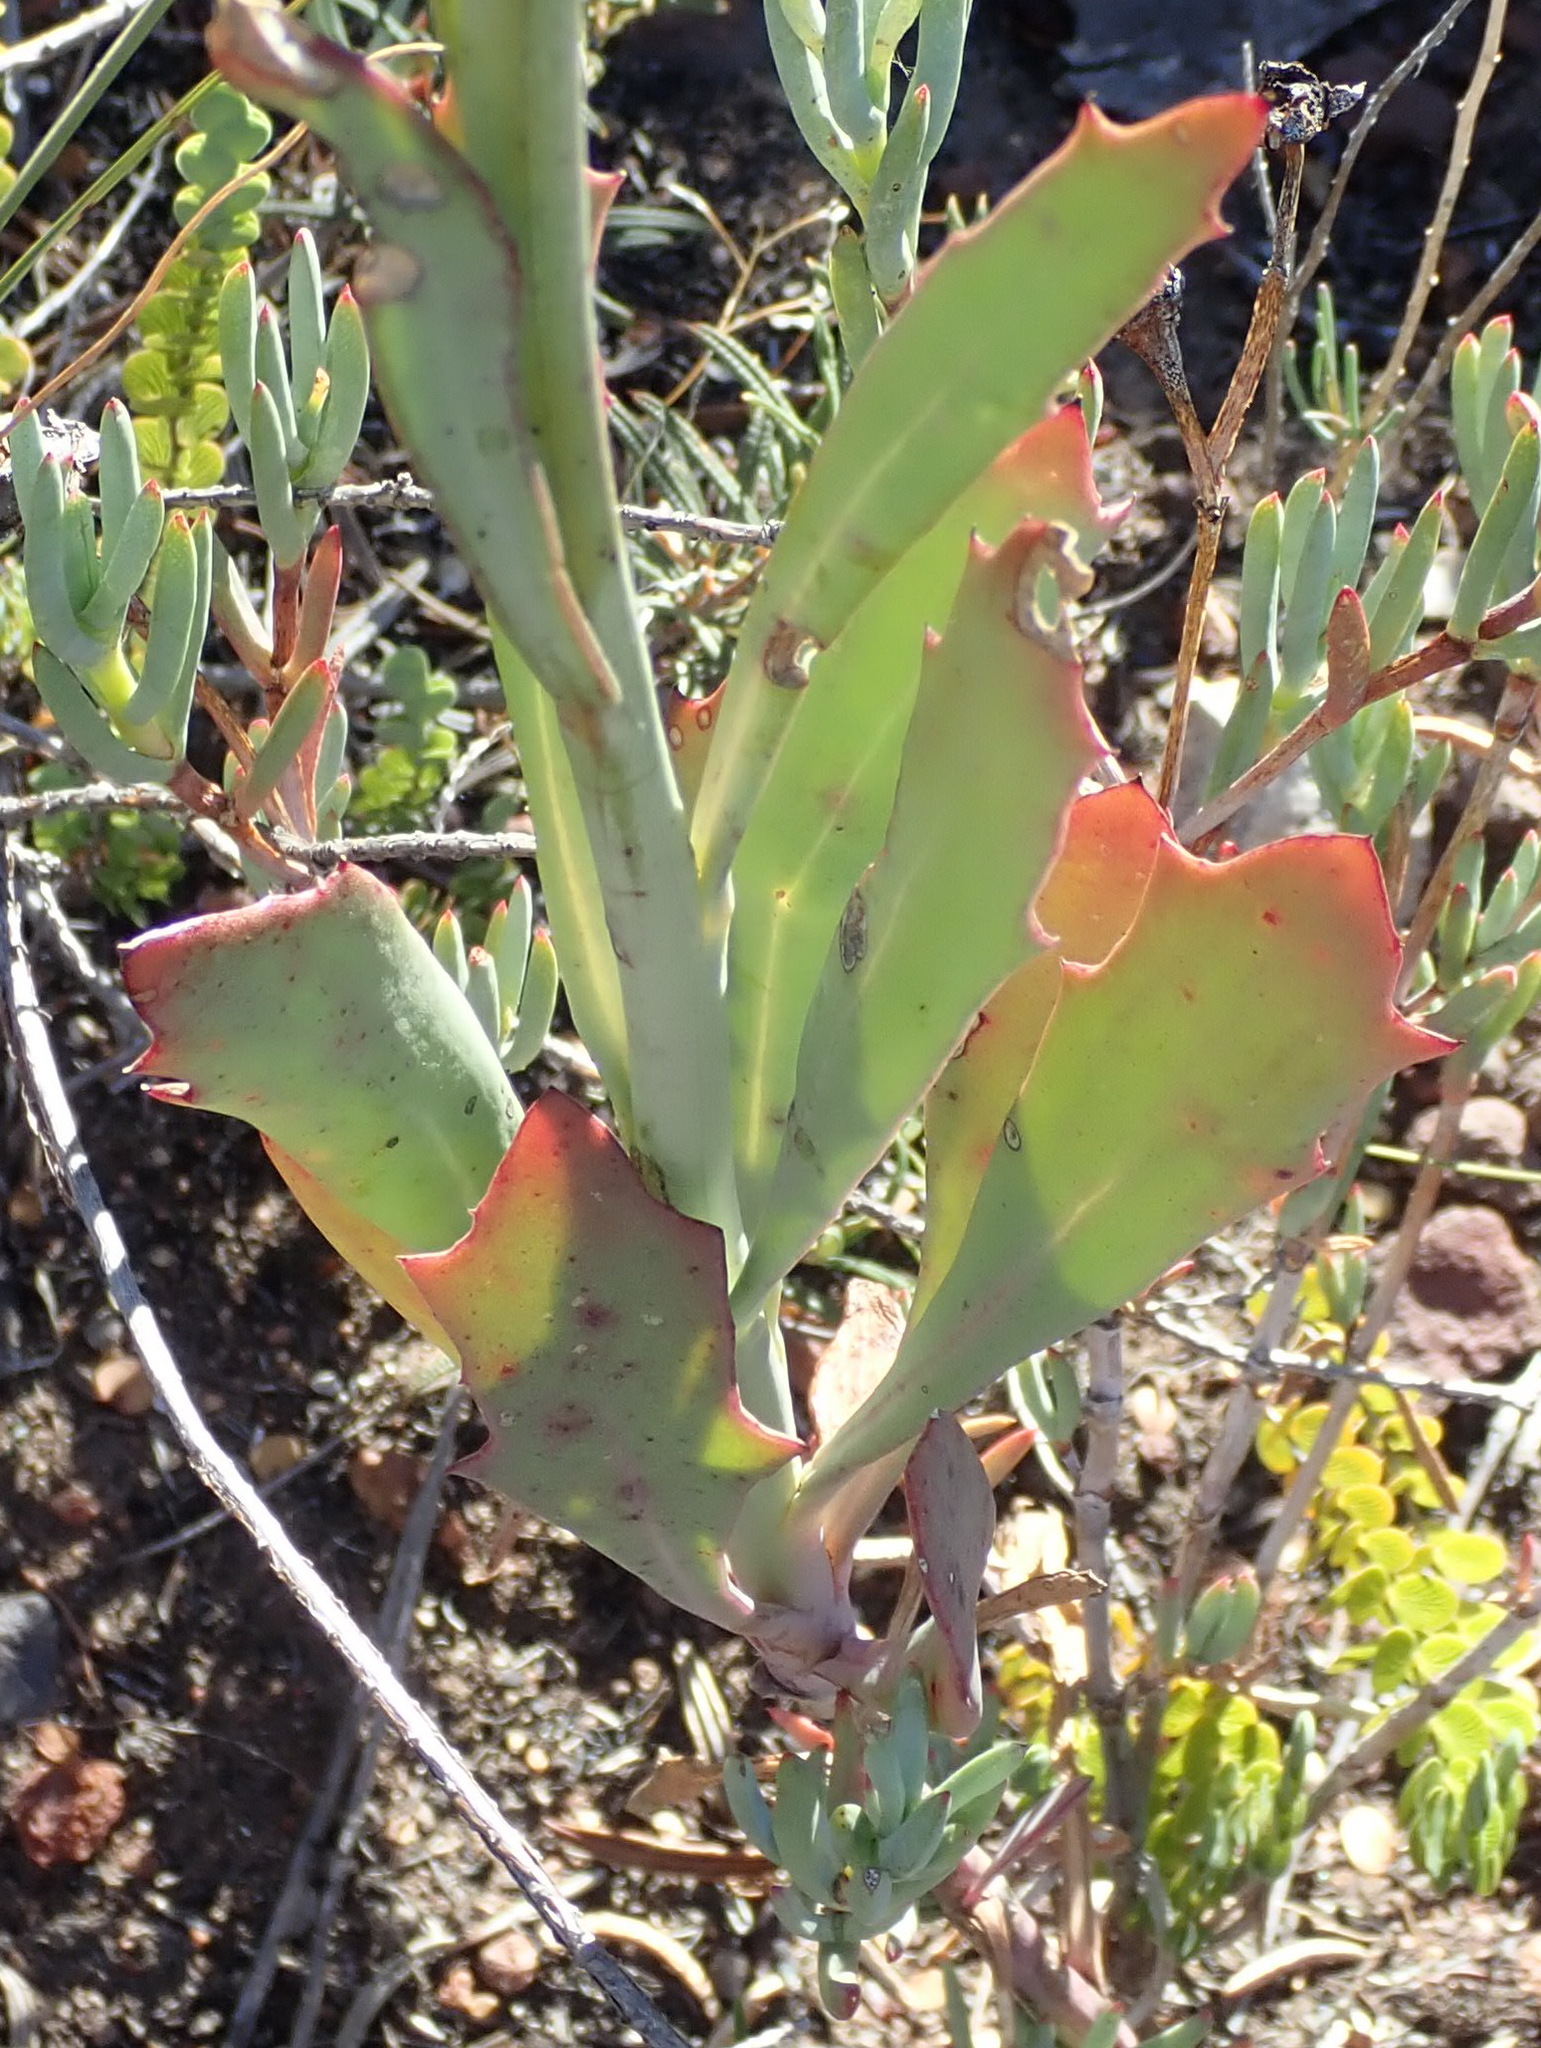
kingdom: Plantae
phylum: Tracheophyta
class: Magnoliopsida
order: Asterales
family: Asteraceae
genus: Othonna
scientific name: Othonna quinquedentata
